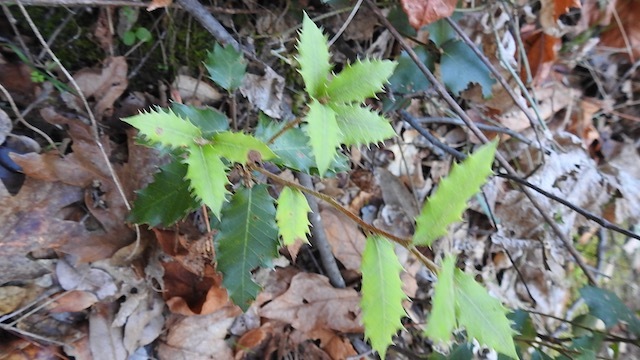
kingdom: Plantae
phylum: Tracheophyta
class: Magnoliopsida
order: Fagales
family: Fagaceae
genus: Quercus
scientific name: Quercus chrysolepis
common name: Canyon live oak
